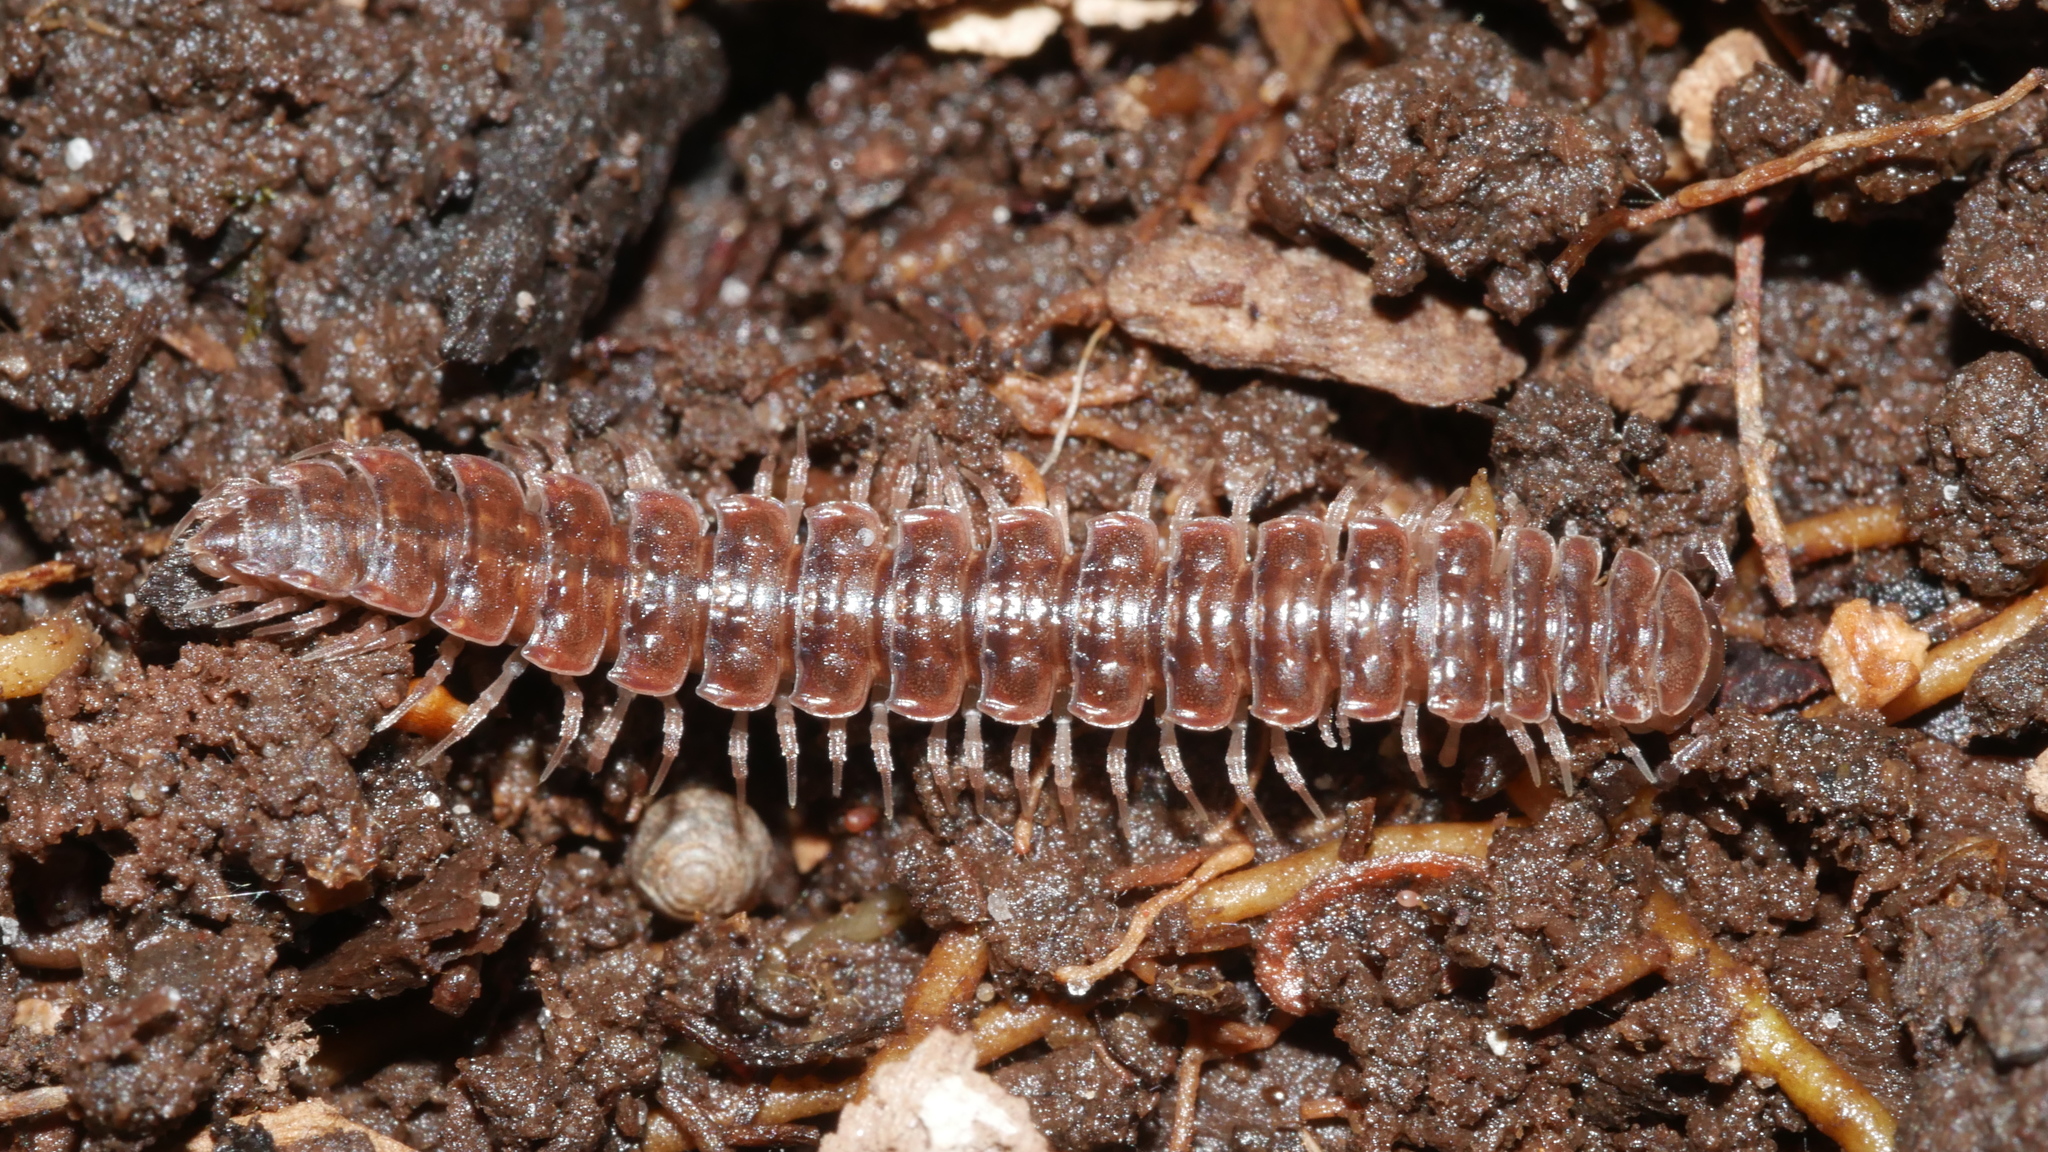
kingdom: Animalia
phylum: Arthropoda
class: Diplopoda
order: Polydesmida
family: Polydesmidae
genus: Pseudopolydesmus
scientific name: Pseudopolydesmus serratus
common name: Common pink flat-back millipede
